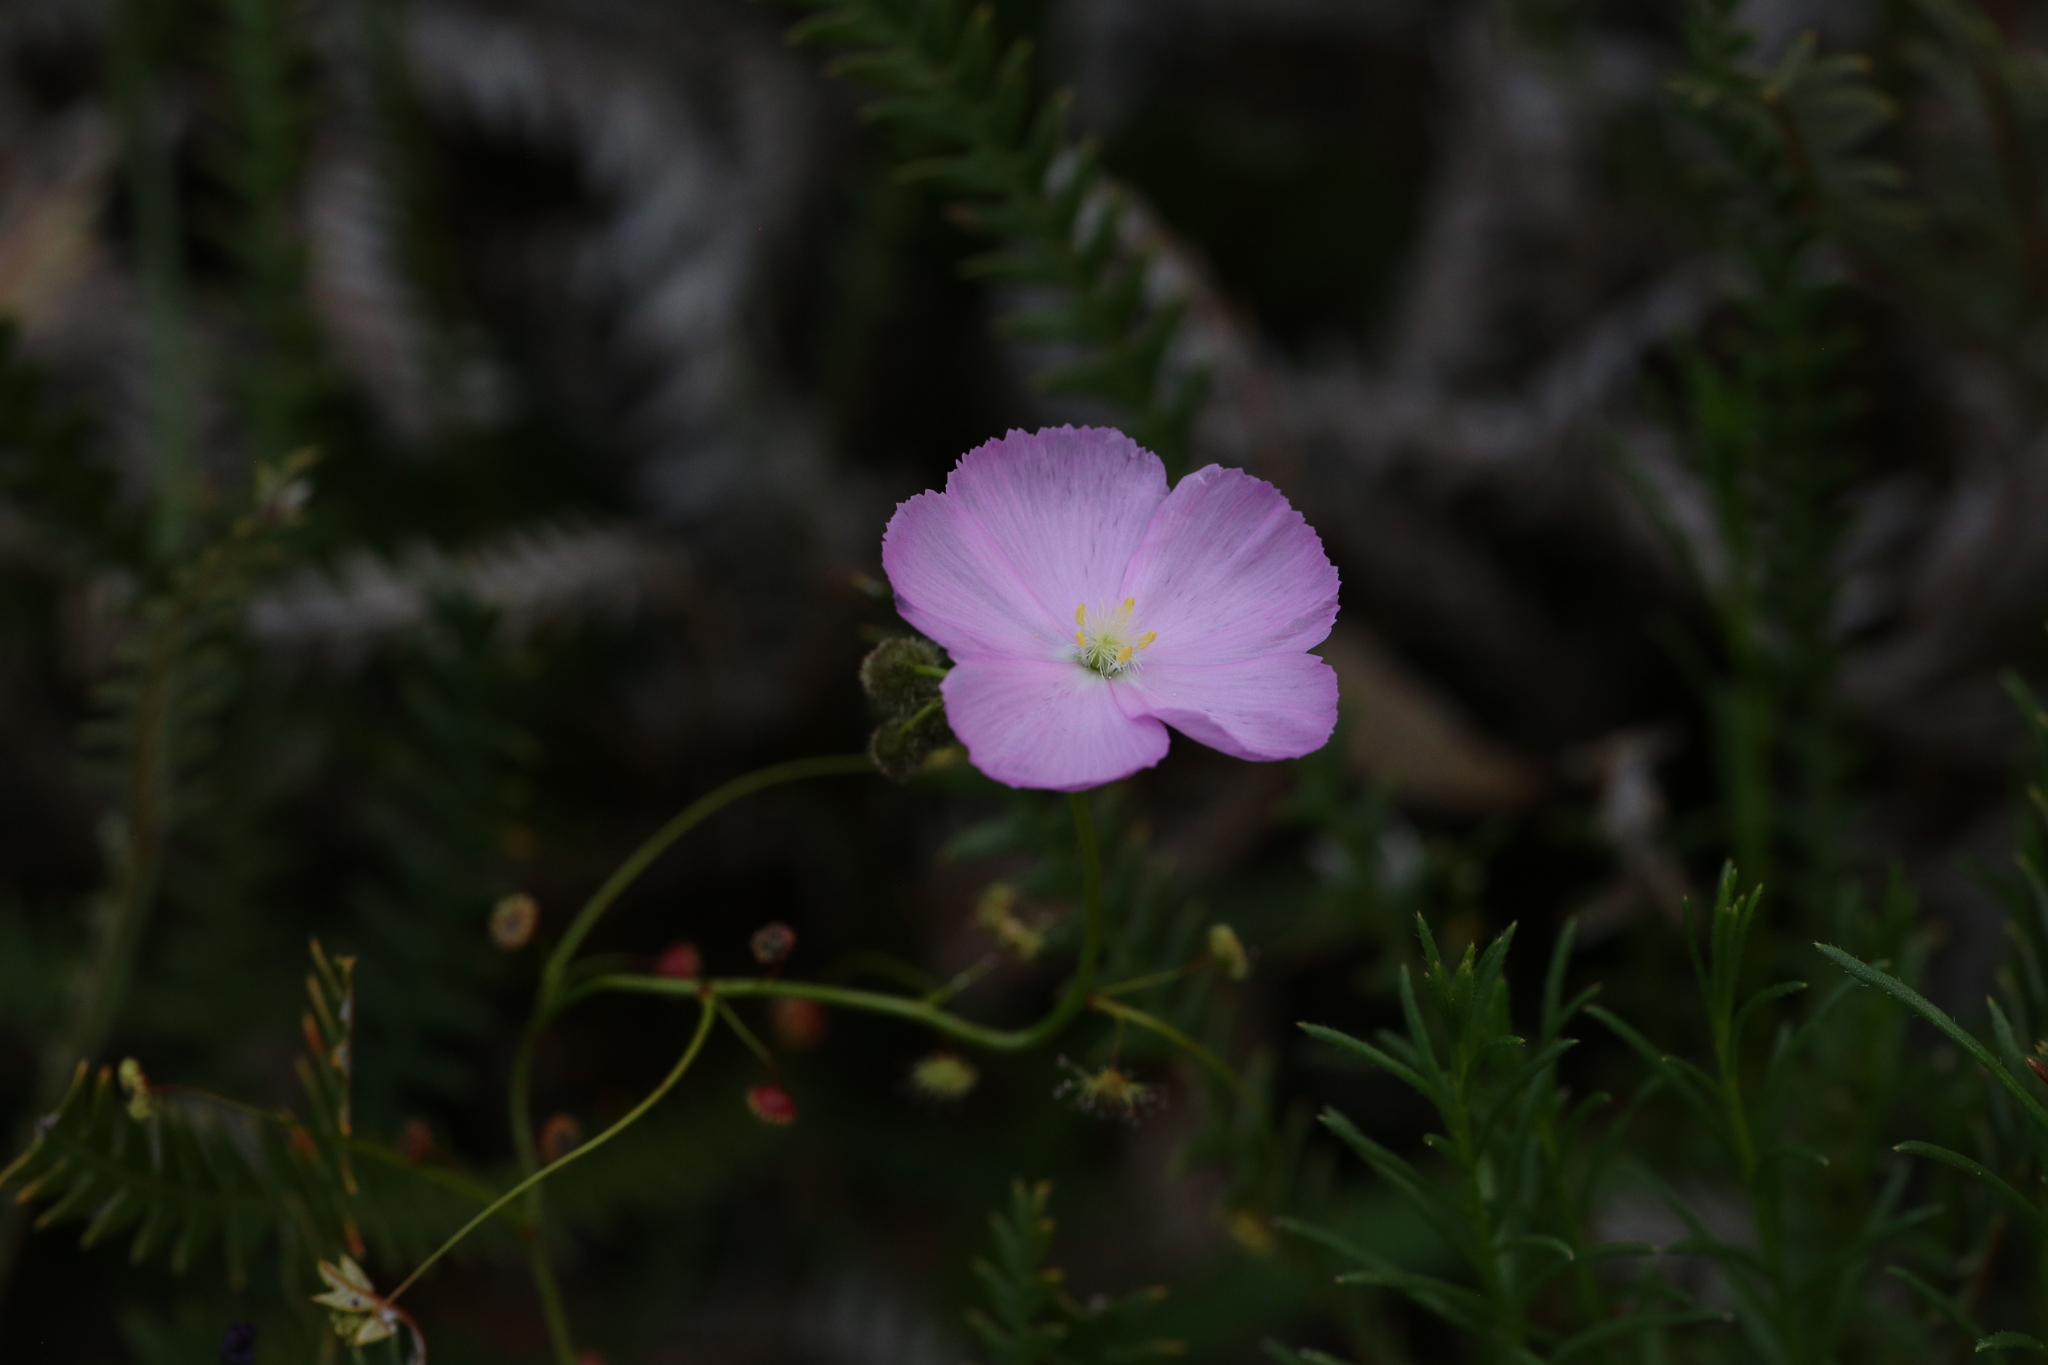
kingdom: Plantae
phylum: Tracheophyta
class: Magnoliopsida
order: Caryophyllales
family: Droseraceae
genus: Drosera
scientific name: Drosera
